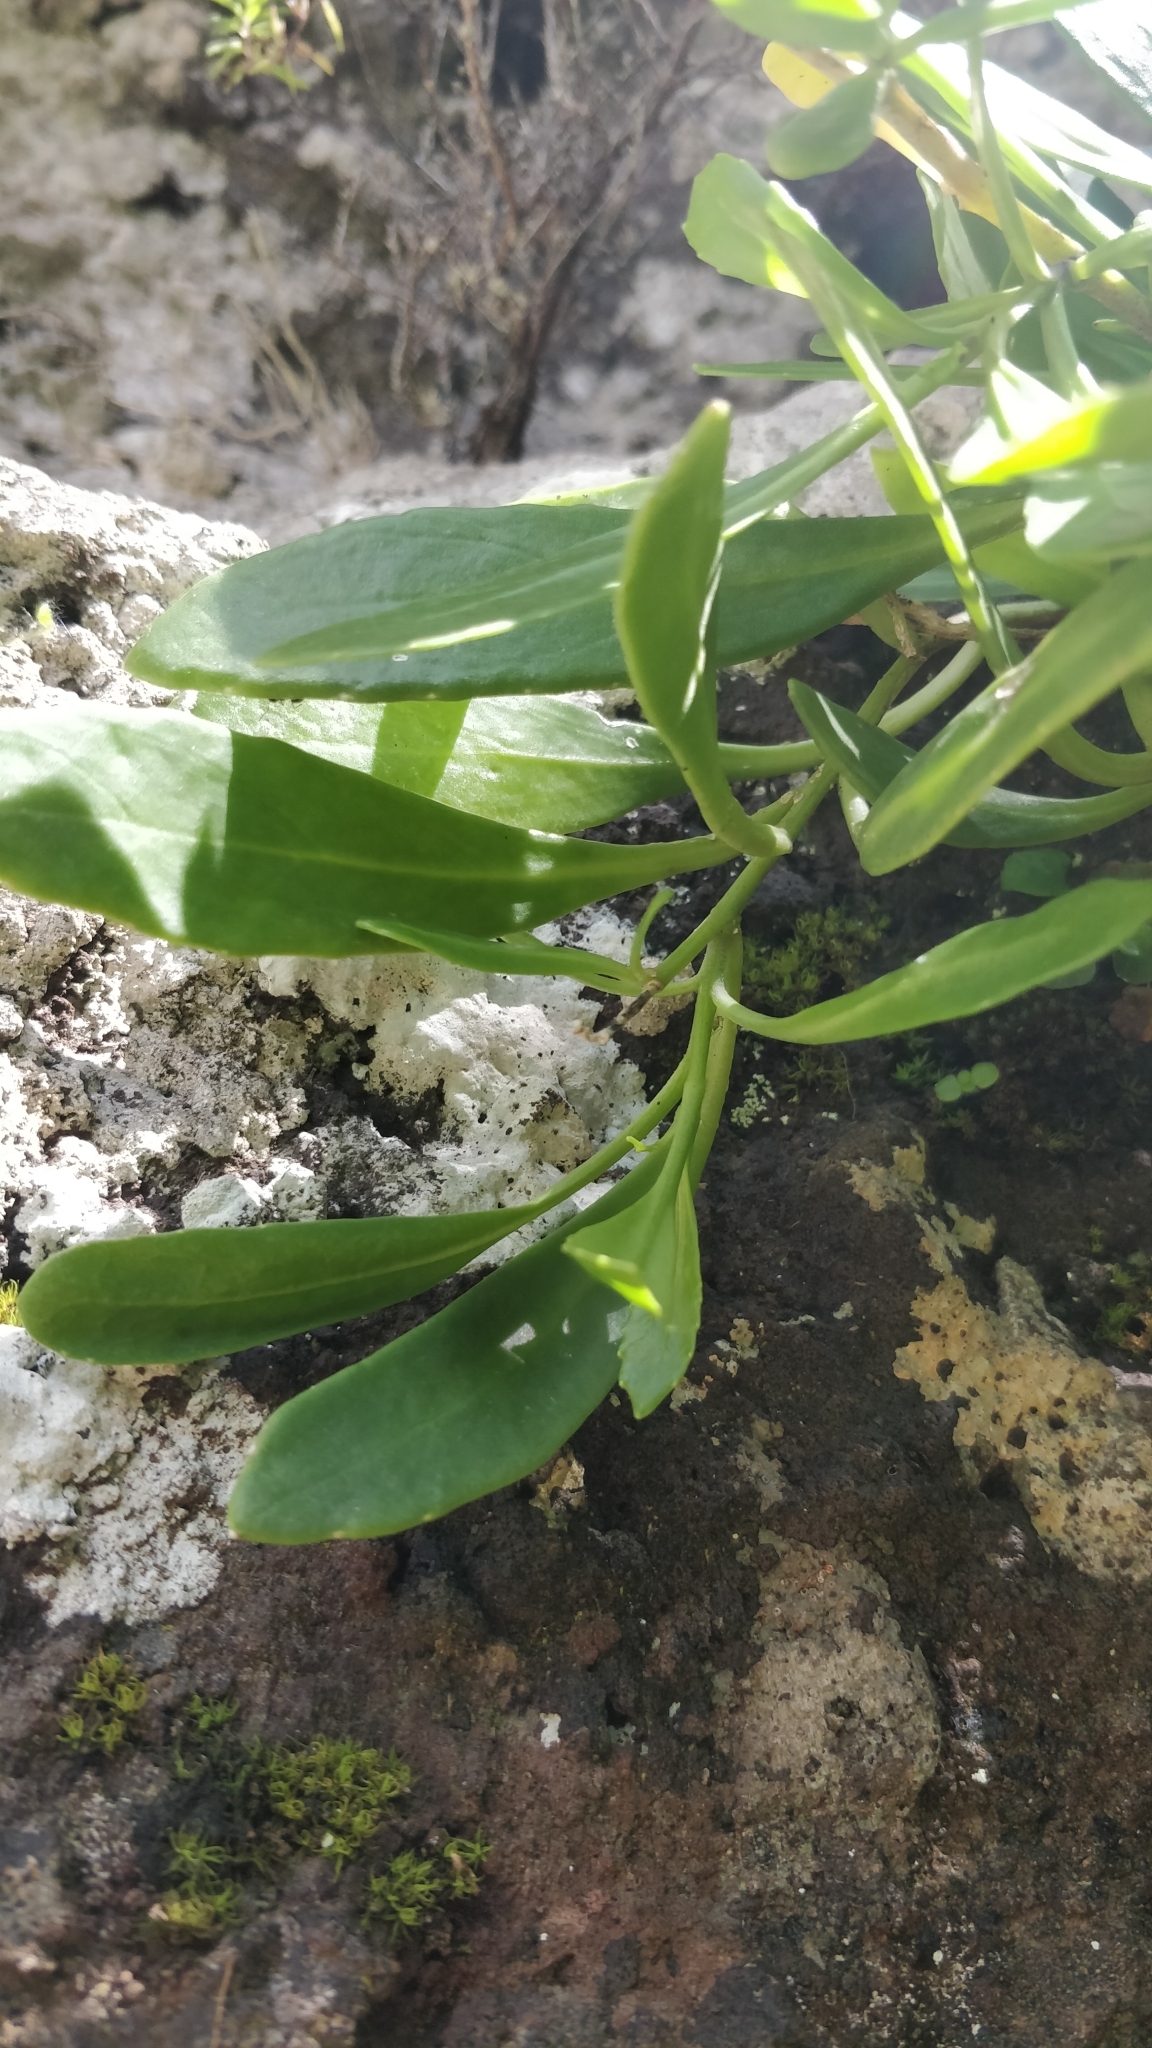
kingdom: Plantae
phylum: Tracheophyta
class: Magnoliopsida
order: Brassicales
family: Brassicaceae
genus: Sinapidendron
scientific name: Sinapidendron frutescens
